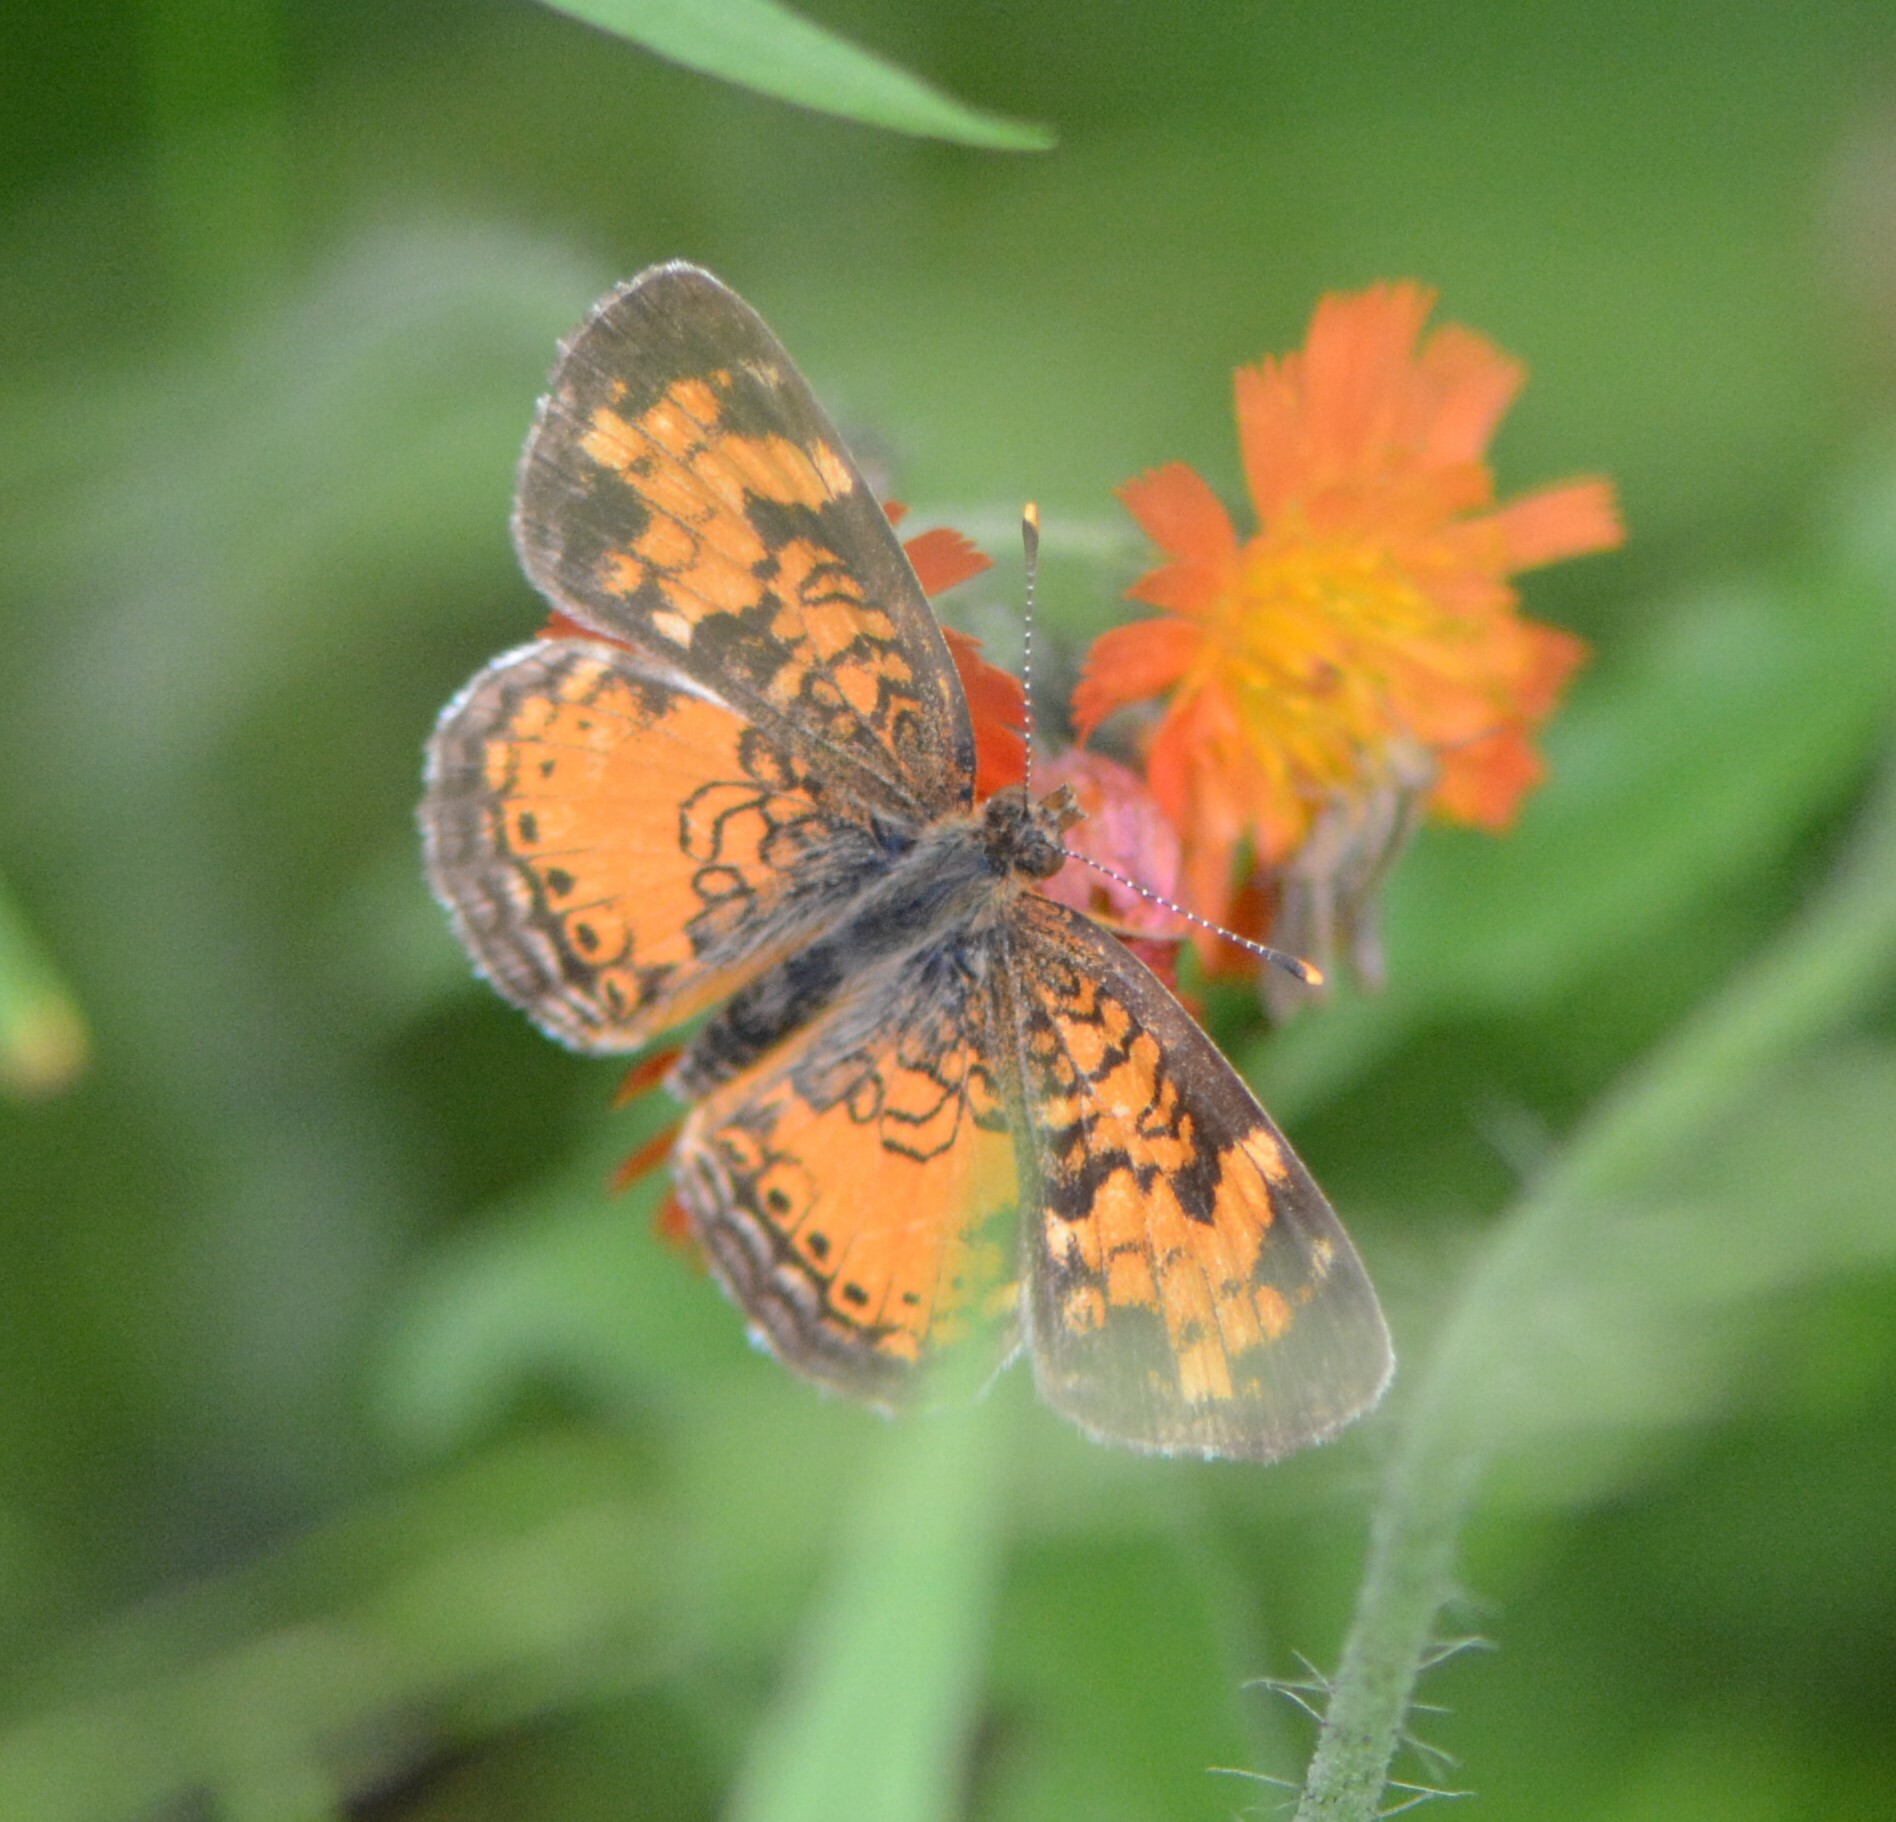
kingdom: Animalia
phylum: Arthropoda
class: Insecta
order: Lepidoptera
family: Nymphalidae
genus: Phyciodes
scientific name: Phyciodes tharos
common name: Pearl crescent
